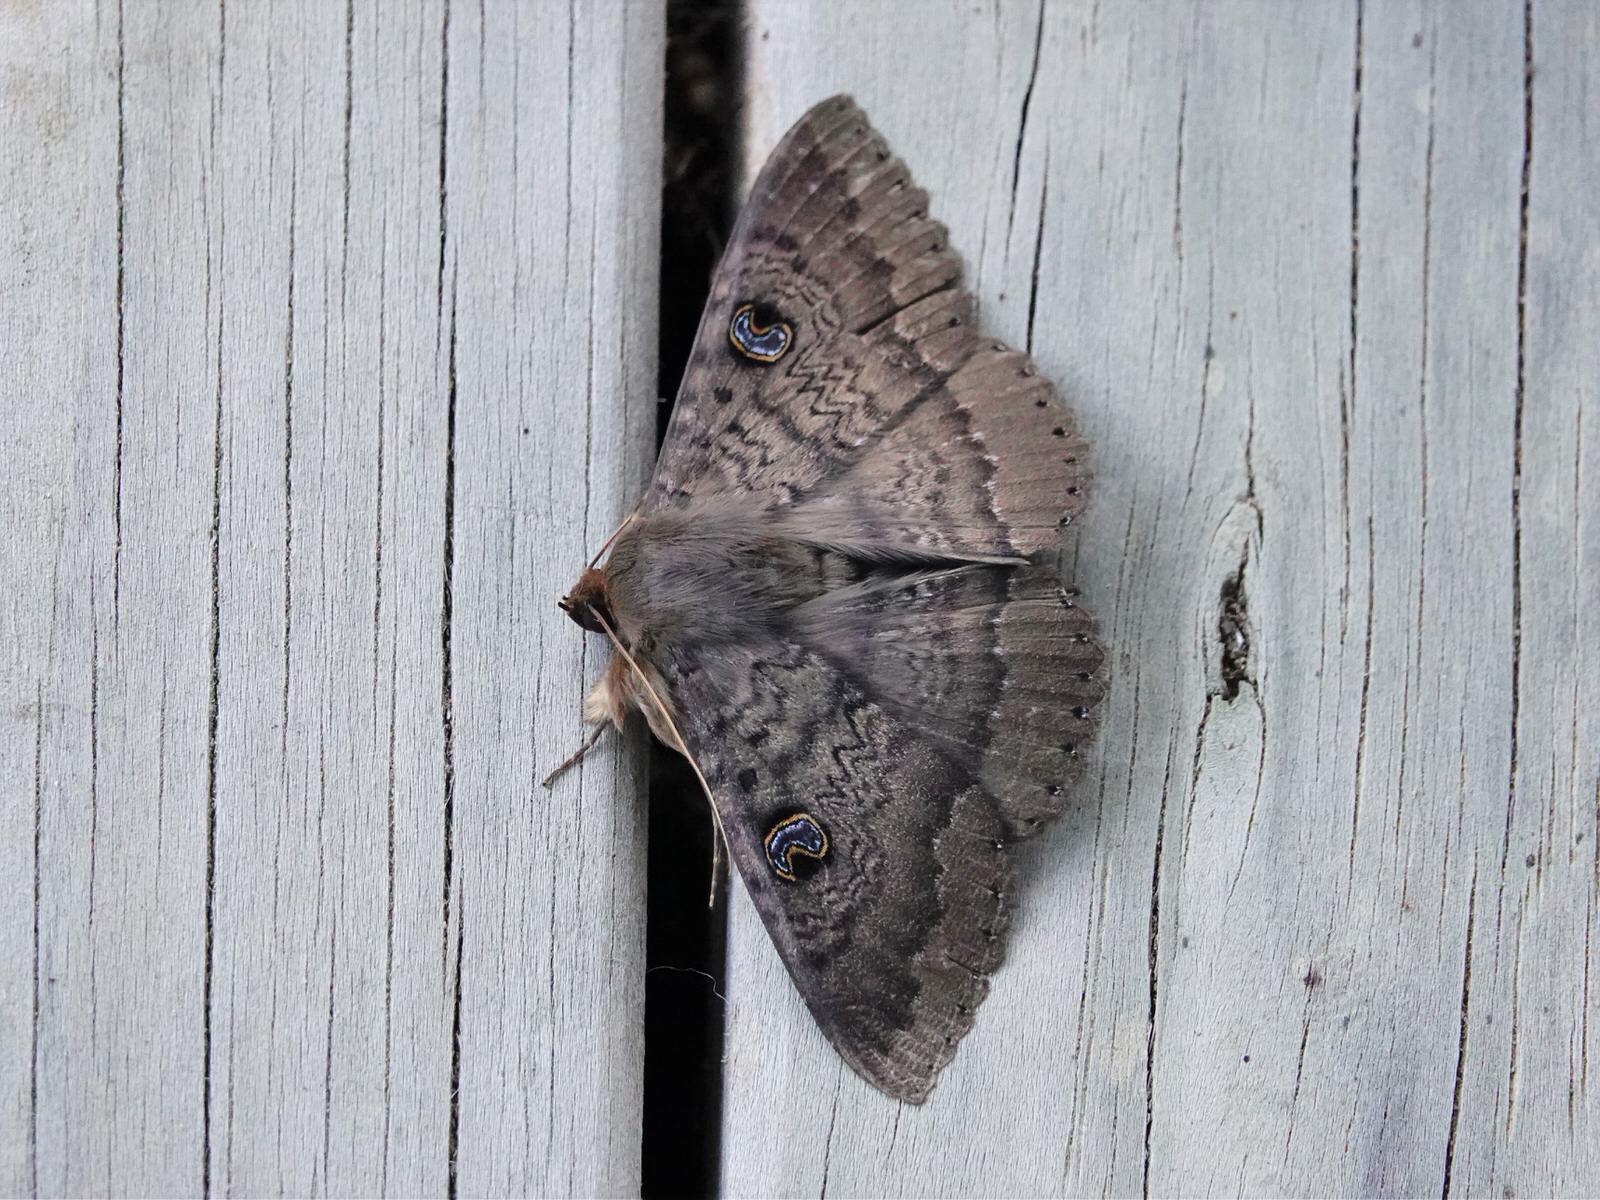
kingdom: Animalia
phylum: Arthropoda
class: Insecta
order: Lepidoptera
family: Erebidae
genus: Dasypodia
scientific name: Dasypodia cymatodes
